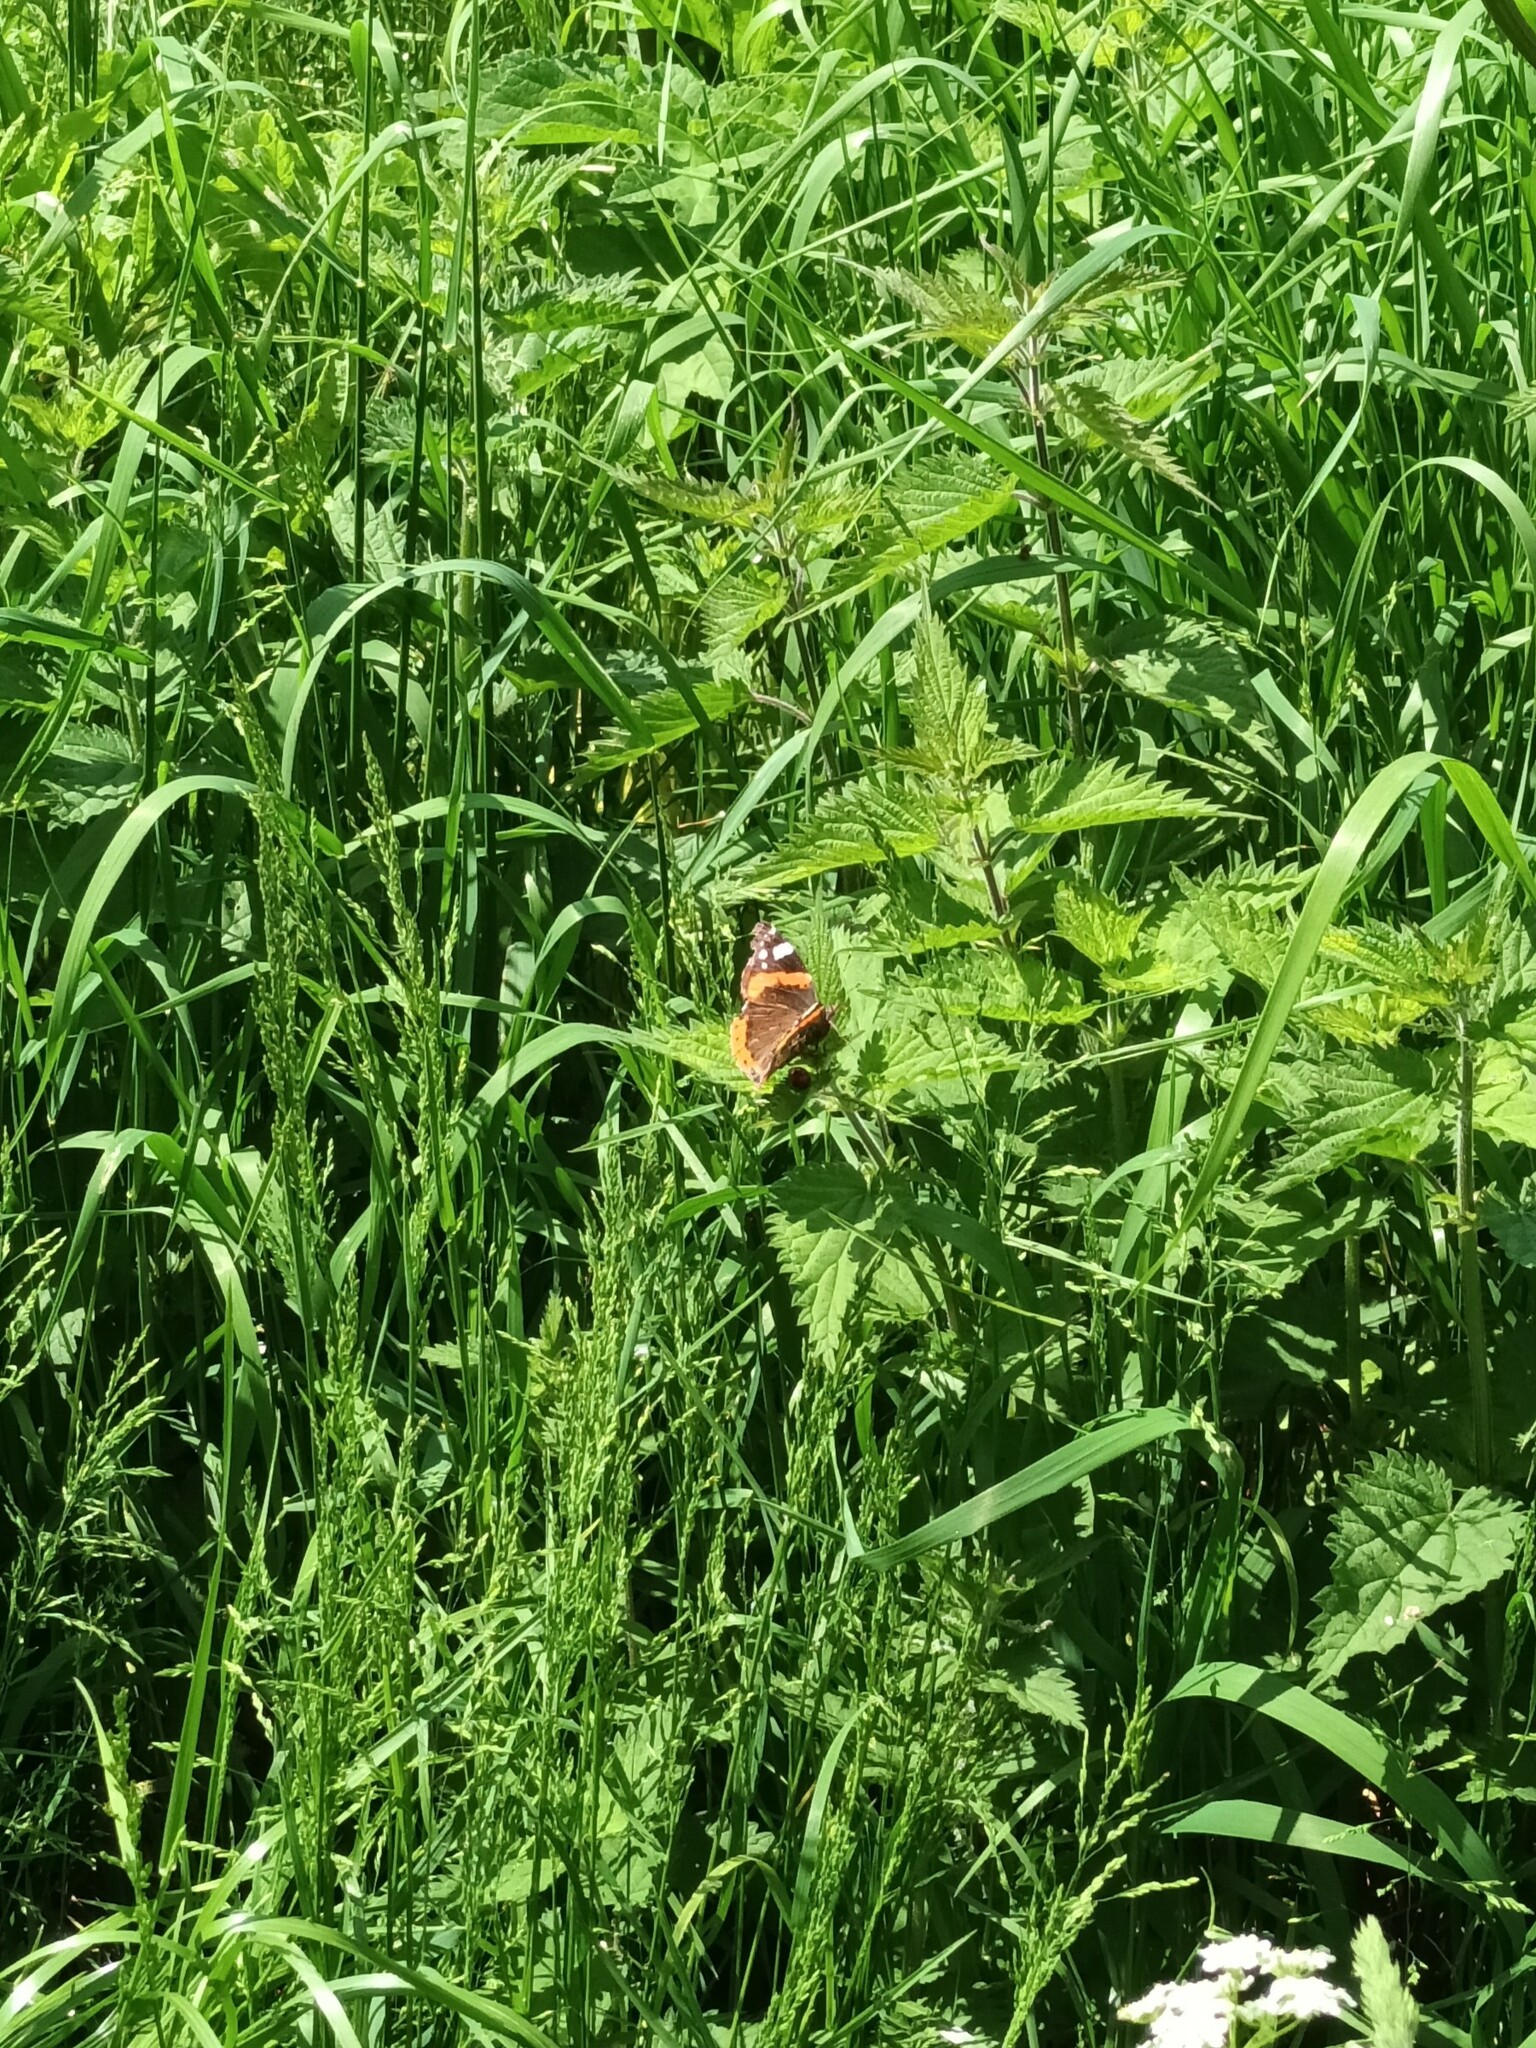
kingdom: Animalia
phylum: Arthropoda
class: Insecta
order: Lepidoptera
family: Nymphalidae
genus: Vanessa
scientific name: Vanessa atalanta
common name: Red admiral
